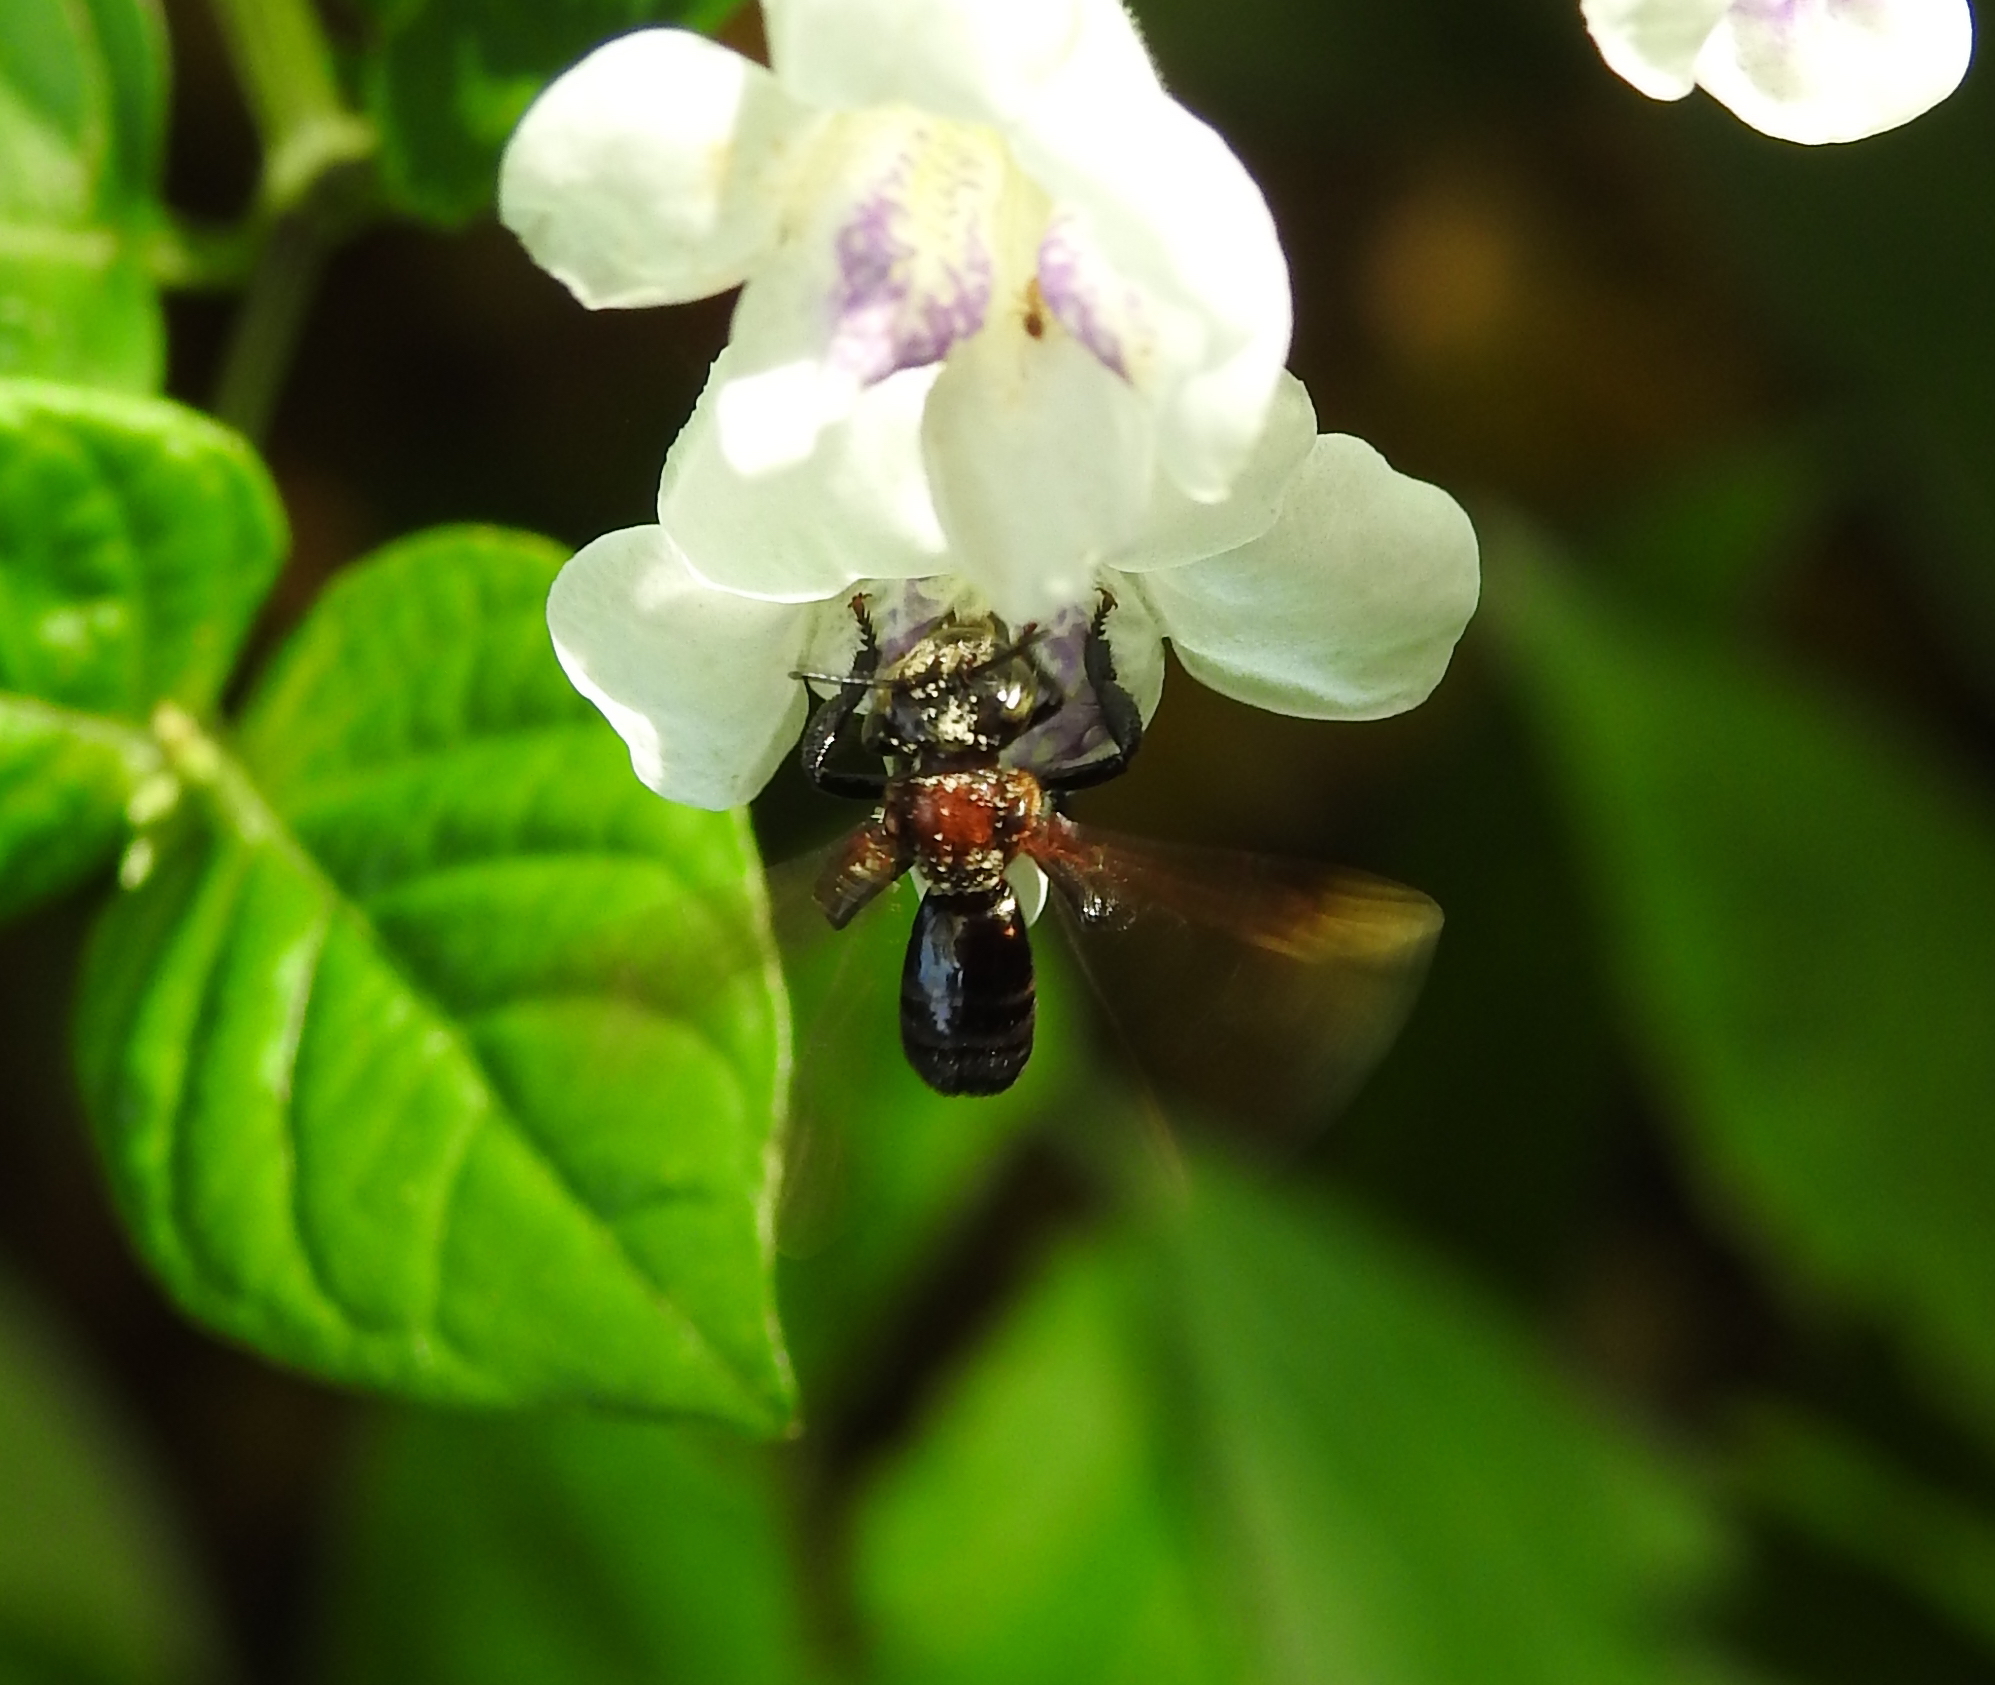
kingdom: Animalia
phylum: Arthropoda
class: Insecta
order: Hymenoptera
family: Apidae
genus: Geniotrigona
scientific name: Geniotrigona thoracica
